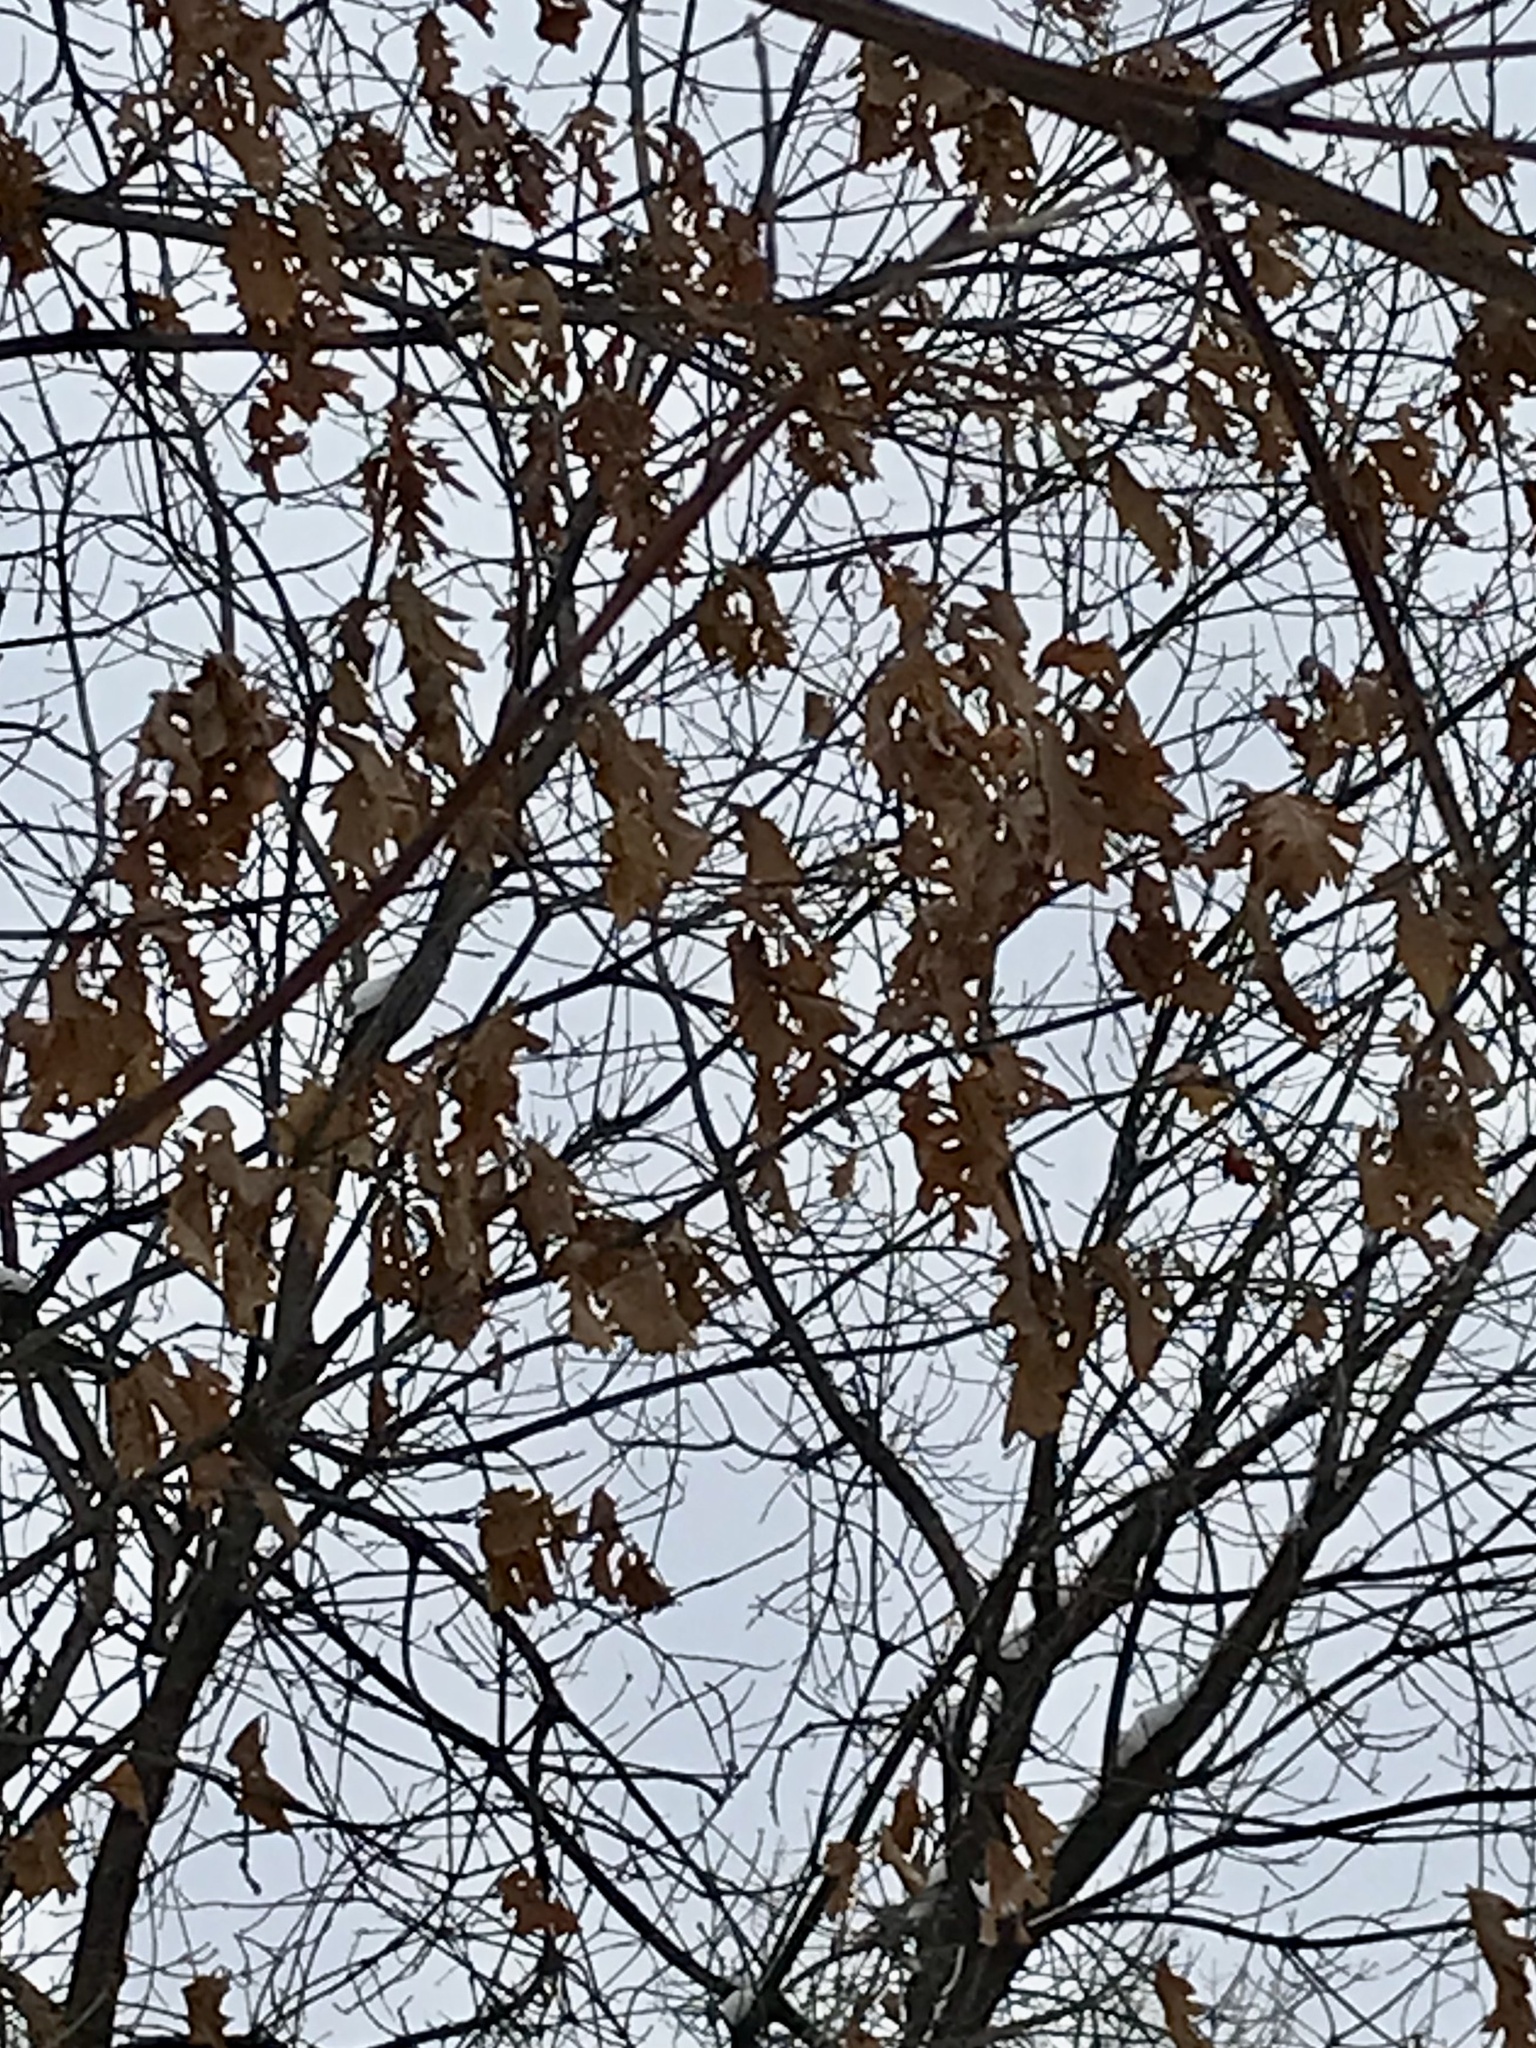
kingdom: Plantae
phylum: Tracheophyta
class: Magnoliopsida
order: Fagales
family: Fagaceae
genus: Quercus
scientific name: Quercus alba
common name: White oak
